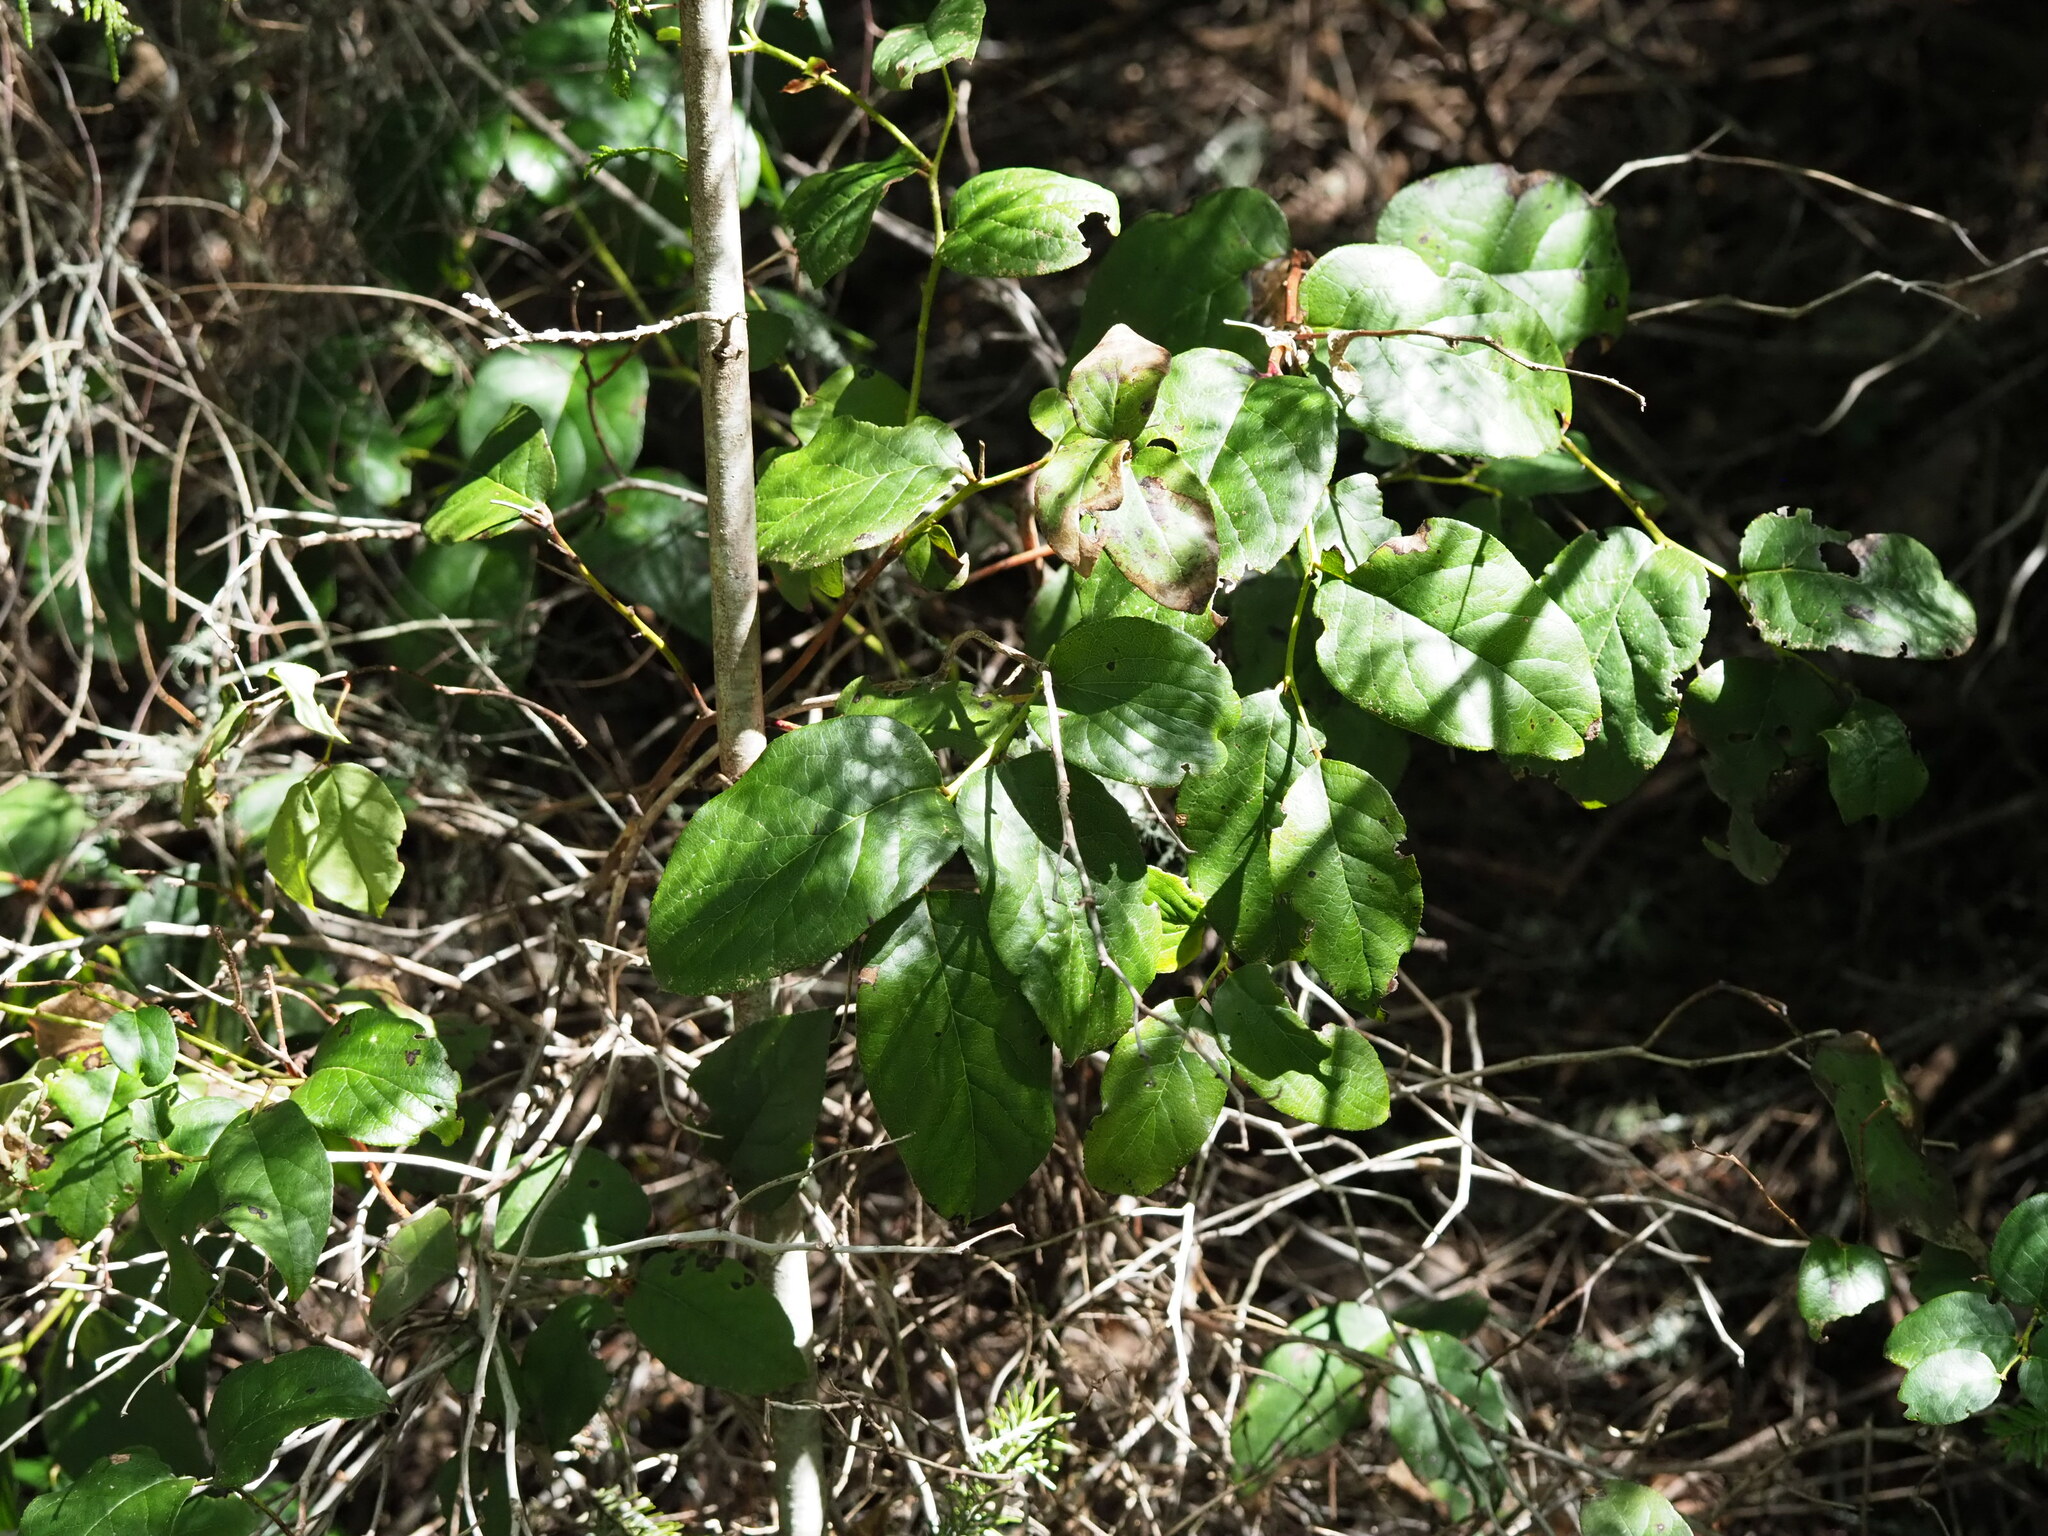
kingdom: Plantae
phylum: Tracheophyta
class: Magnoliopsida
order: Ericales
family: Ericaceae
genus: Gaultheria
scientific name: Gaultheria shallon
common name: Shallon
